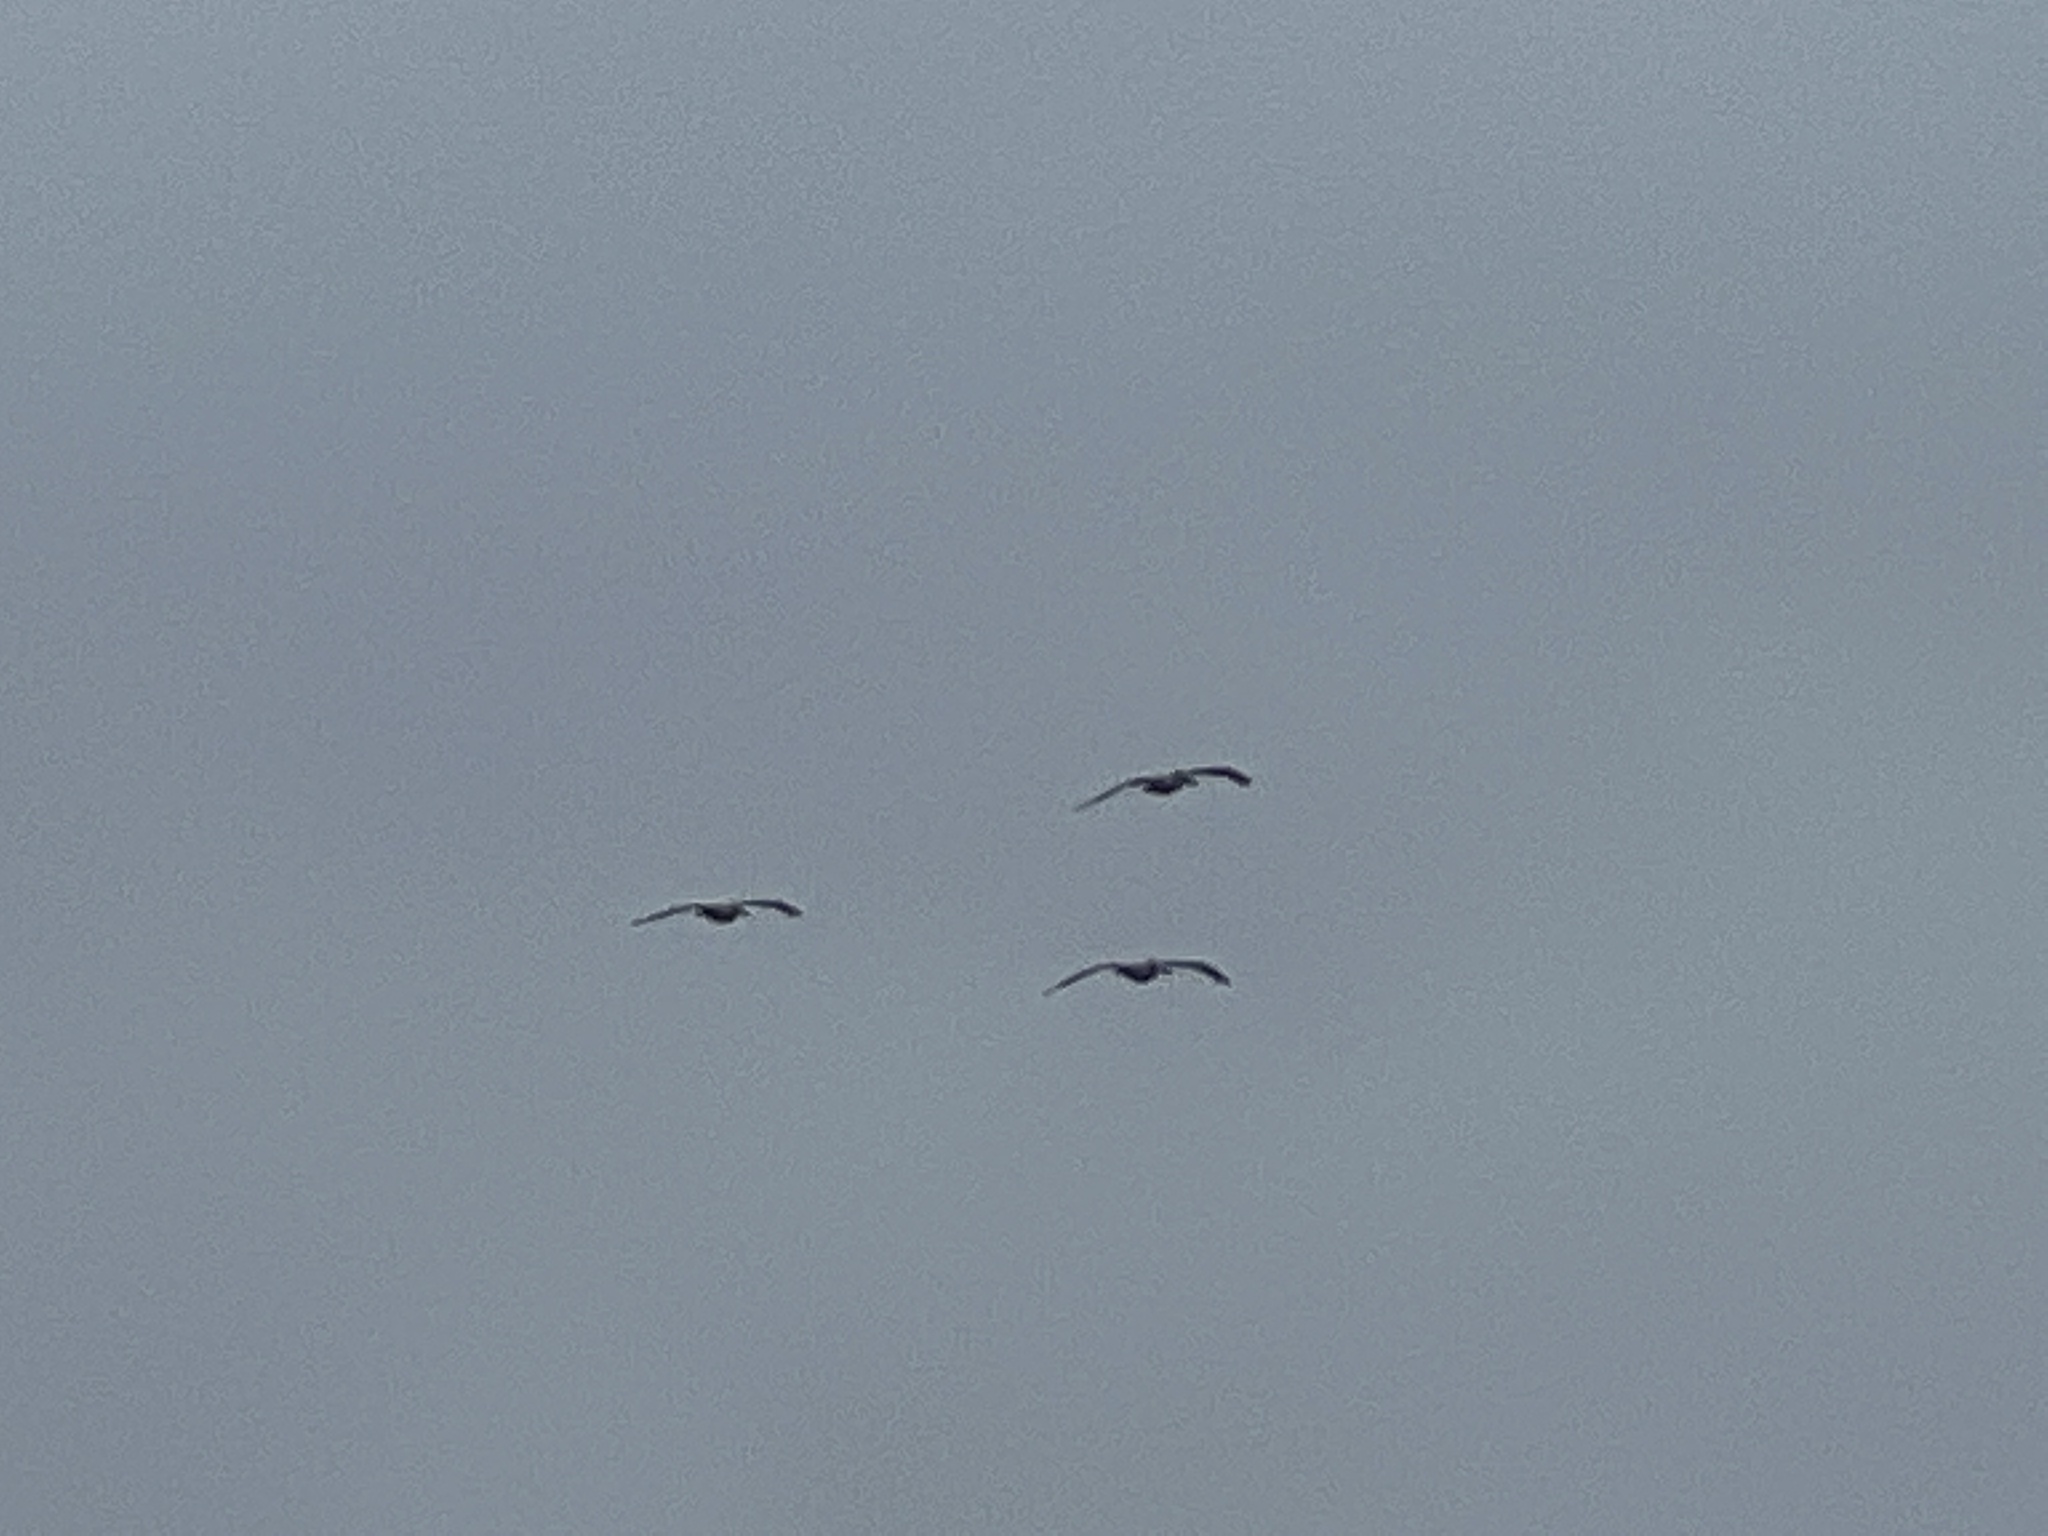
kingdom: Animalia
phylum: Chordata
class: Aves
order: Pelecaniformes
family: Pelecanidae
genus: Pelecanus
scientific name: Pelecanus occidentalis
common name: Brown pelican
